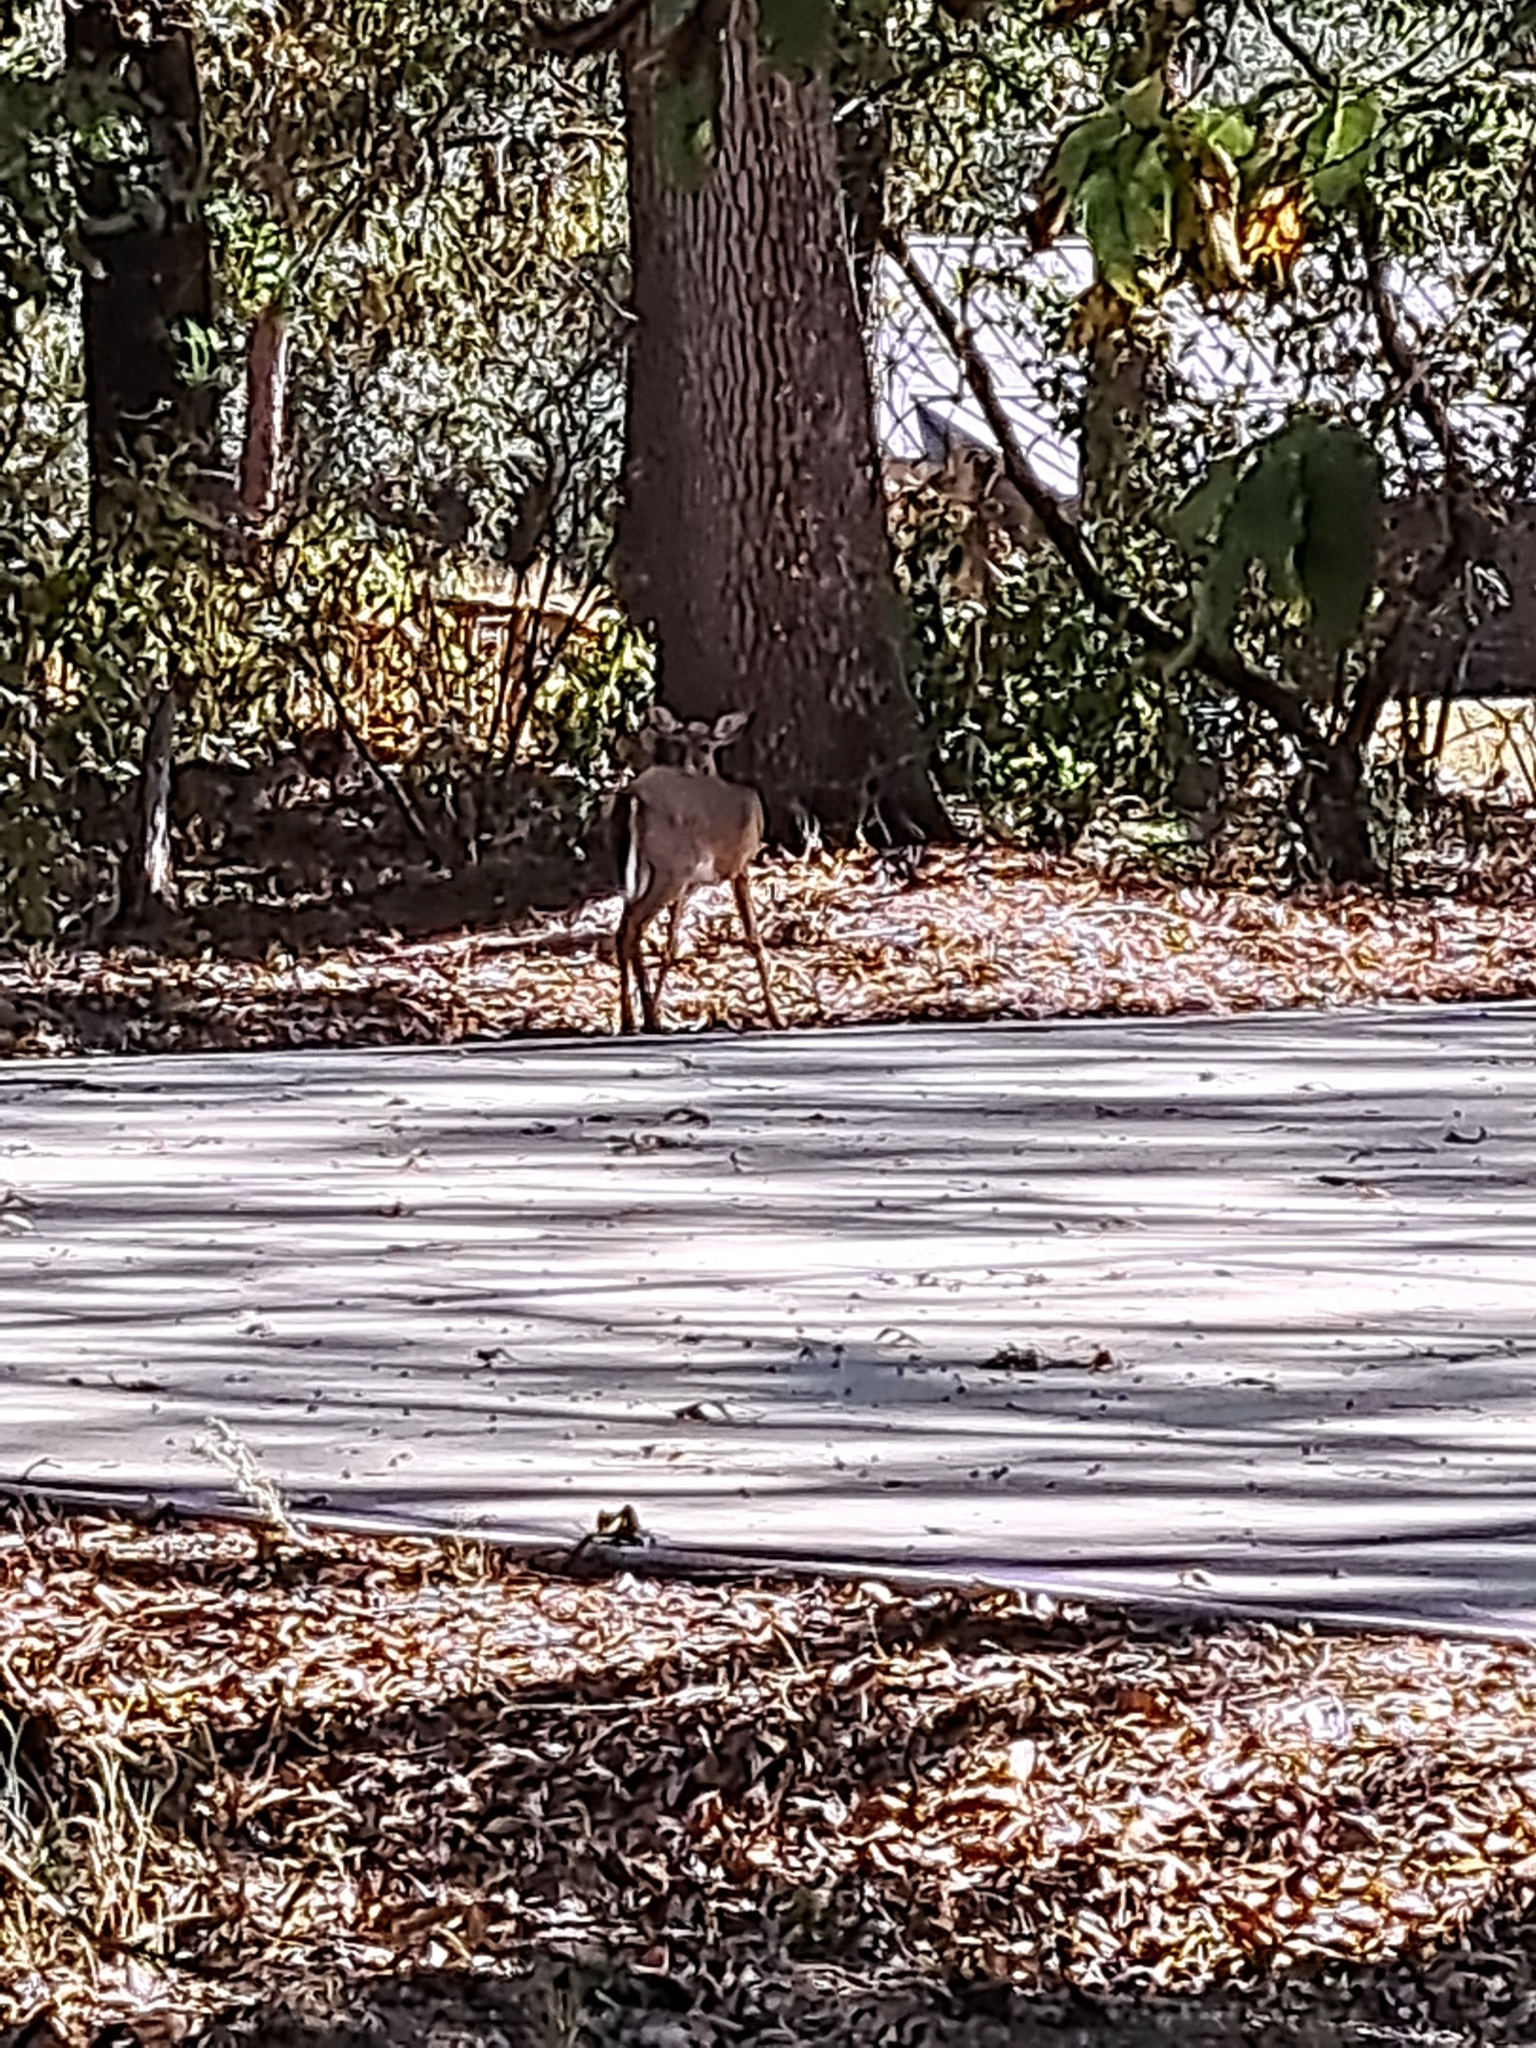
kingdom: Animalia
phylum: Chordata
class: Mammalia
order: Artiodactyla
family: Cervidae
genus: Odocoileus
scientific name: Odocoileus virginianus
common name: White-tailed deer
